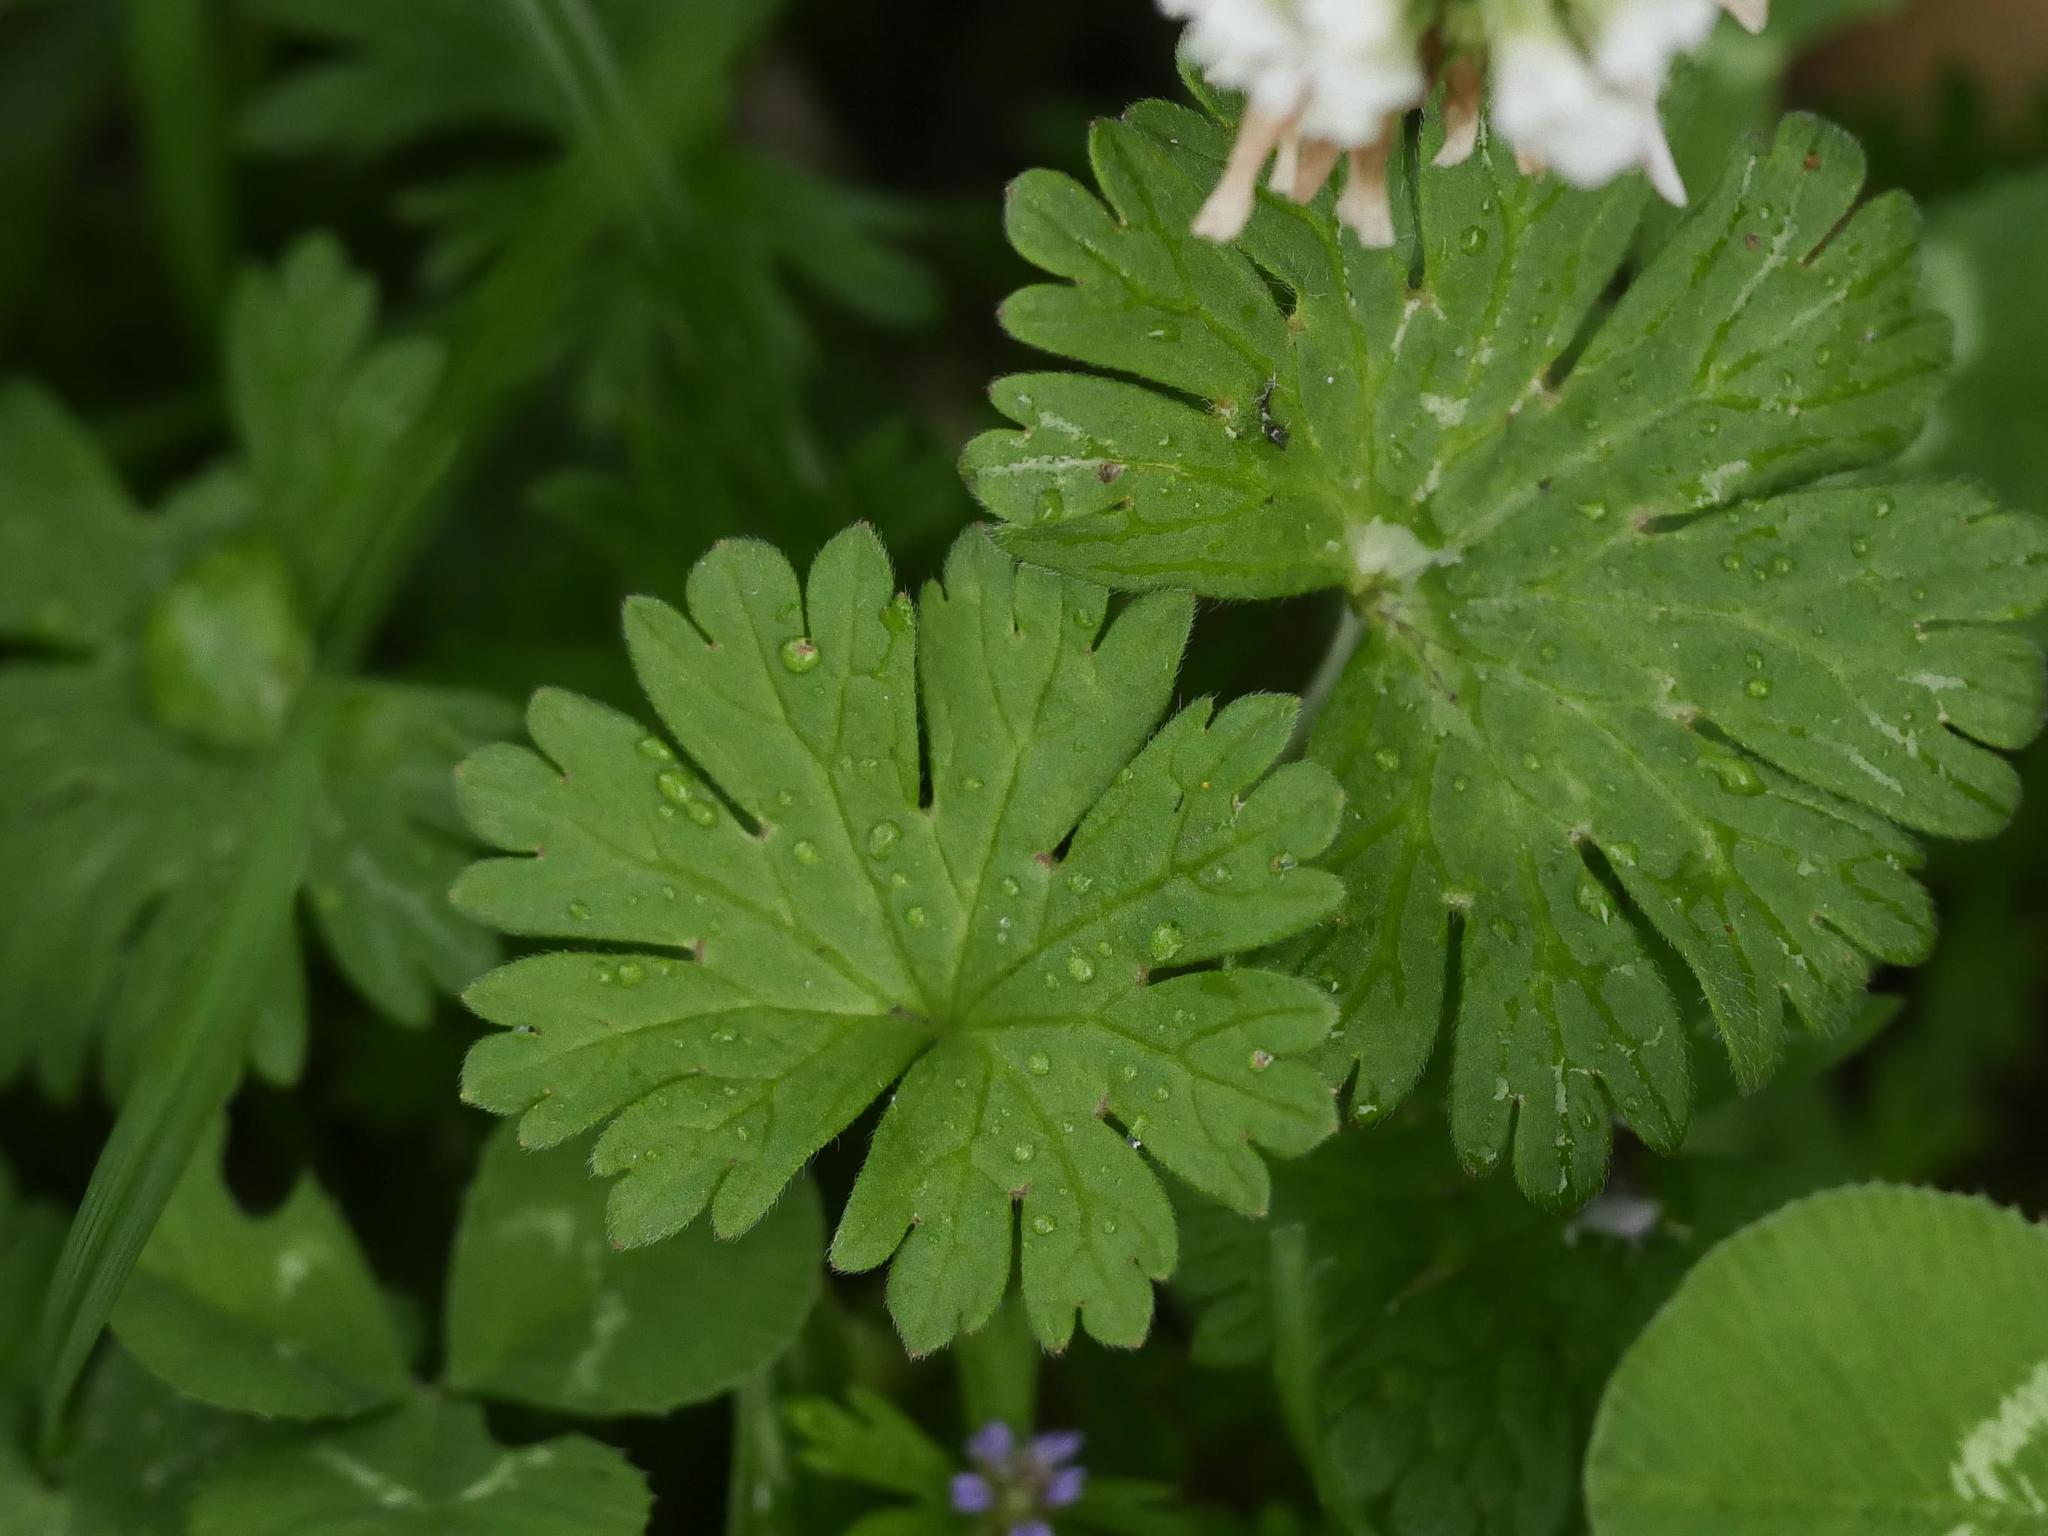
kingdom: Plantae
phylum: Tracheophyta
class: Magnoliopsida
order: Geraniales
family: Geraniaceae
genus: Geranium
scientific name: Geranium pusillum
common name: Small geranium
